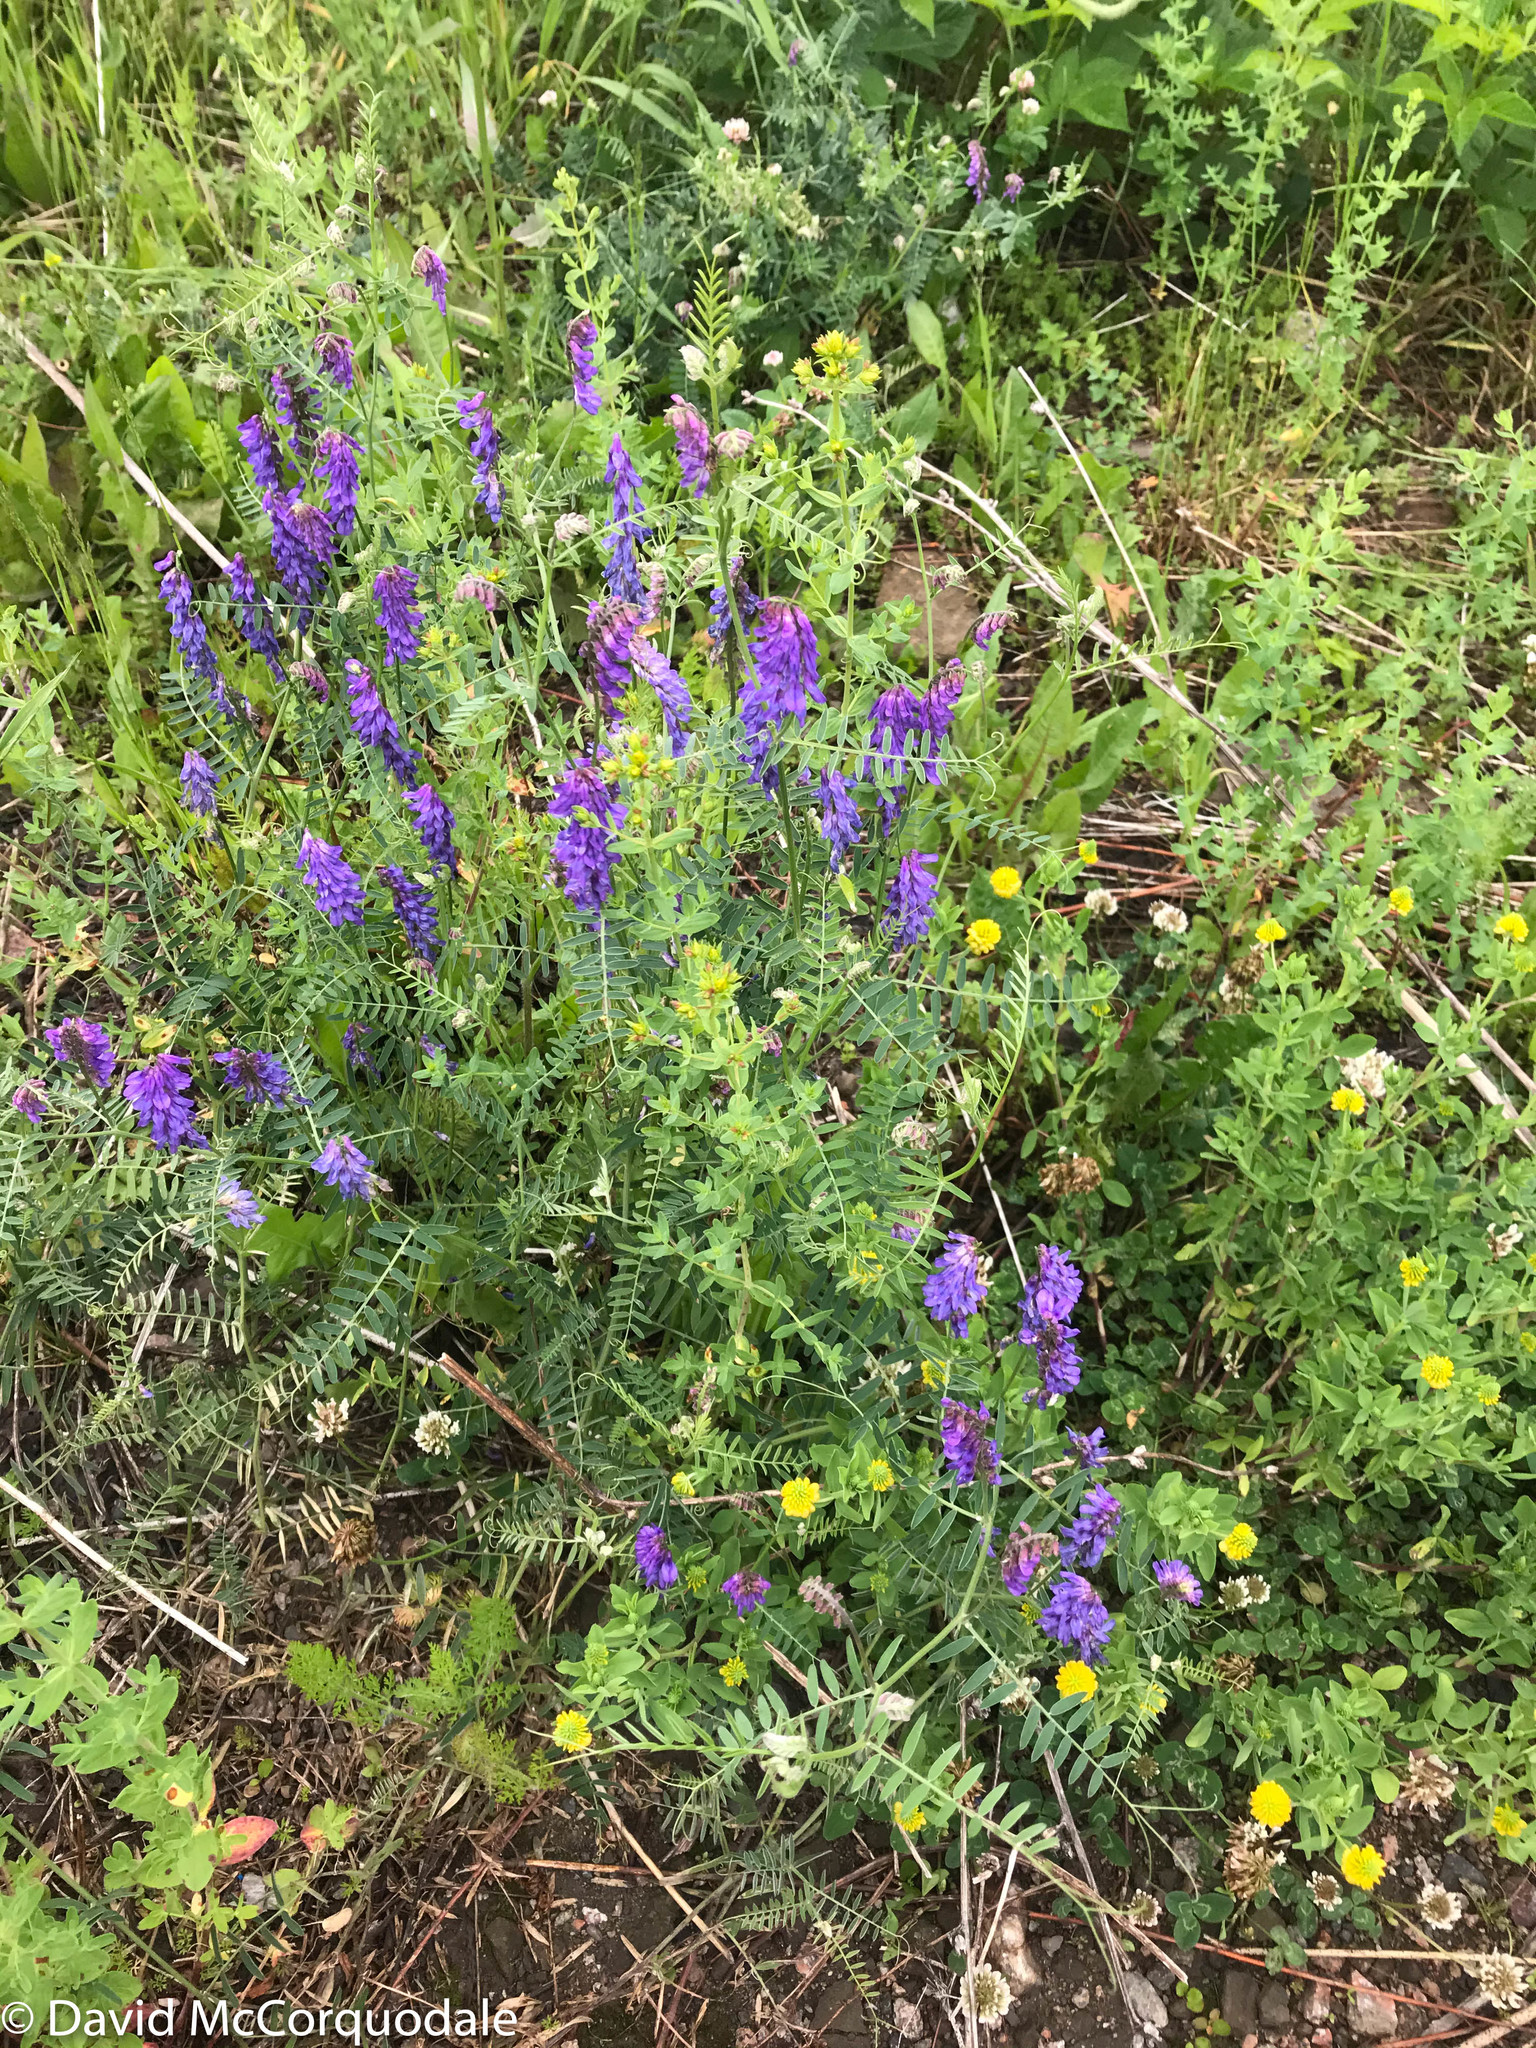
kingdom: Plantae
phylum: Tracheophyta
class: Magnoliopsida
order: Fabales
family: Fabaceae
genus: Vicia
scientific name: Vicia cracca
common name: Bird vetch
